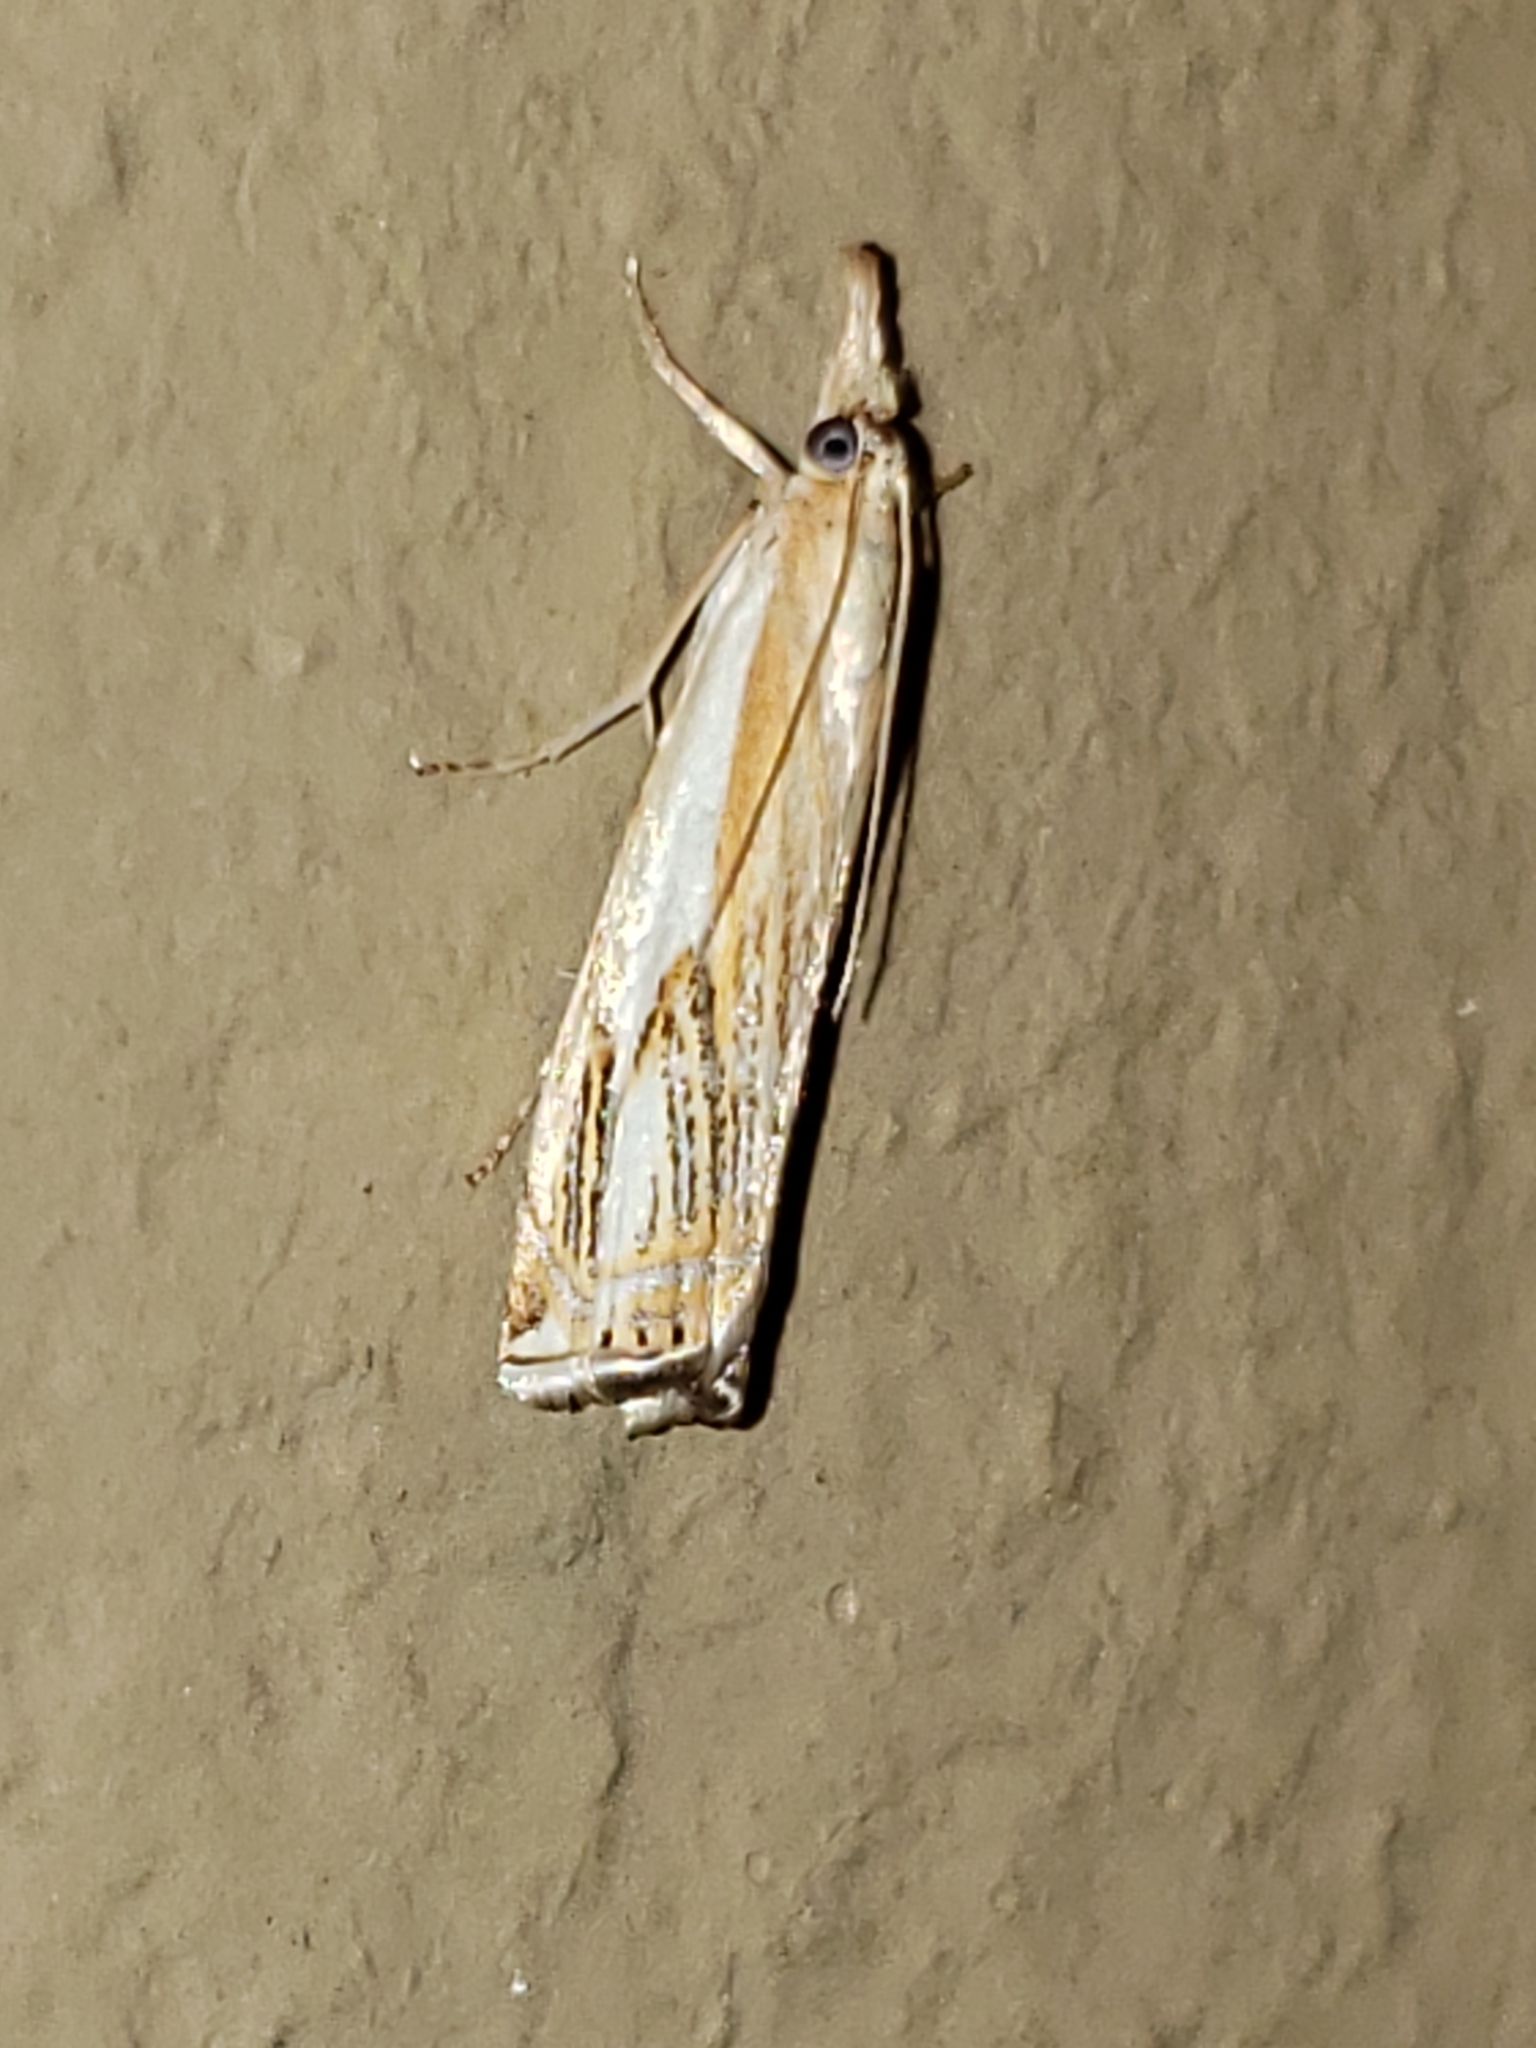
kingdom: Animalia
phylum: Arthropoda
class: Insecta
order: Lepidoptera
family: Crambidae
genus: Crambus
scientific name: Crambus agitatellus
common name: Double-banded grass-veneer
